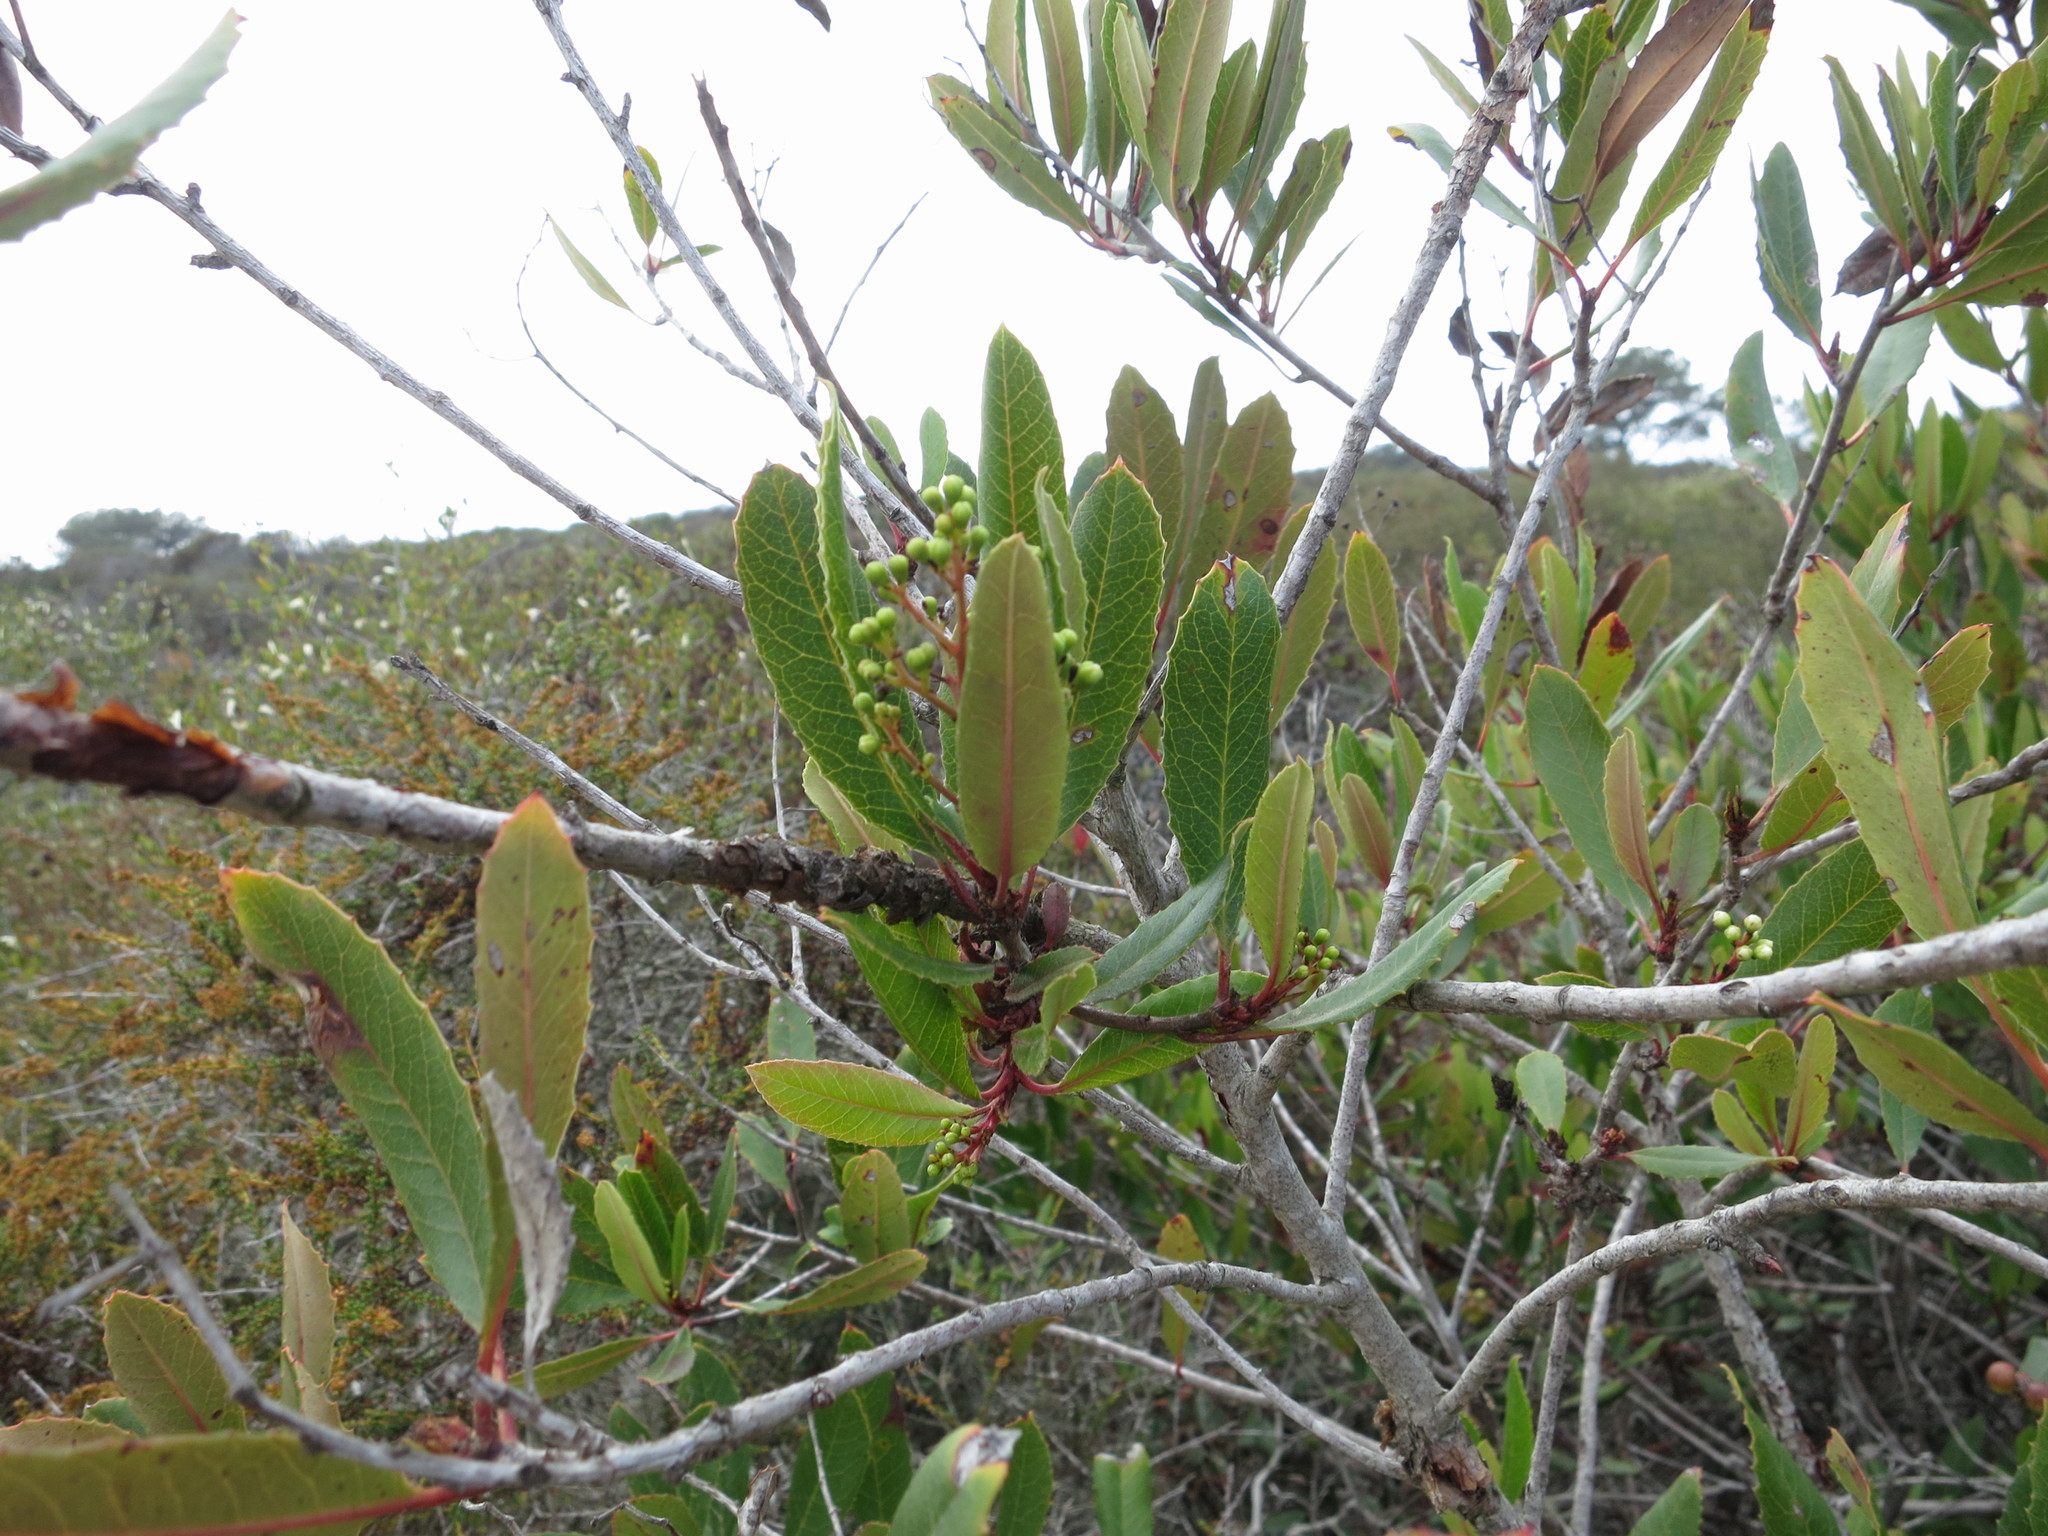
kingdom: Plantae
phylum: Tracheophyta
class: Magnoliopsida
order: Rosales
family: Rosaceae
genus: Heteromeles
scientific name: Heteromeles arbutifolia
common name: California-holly
